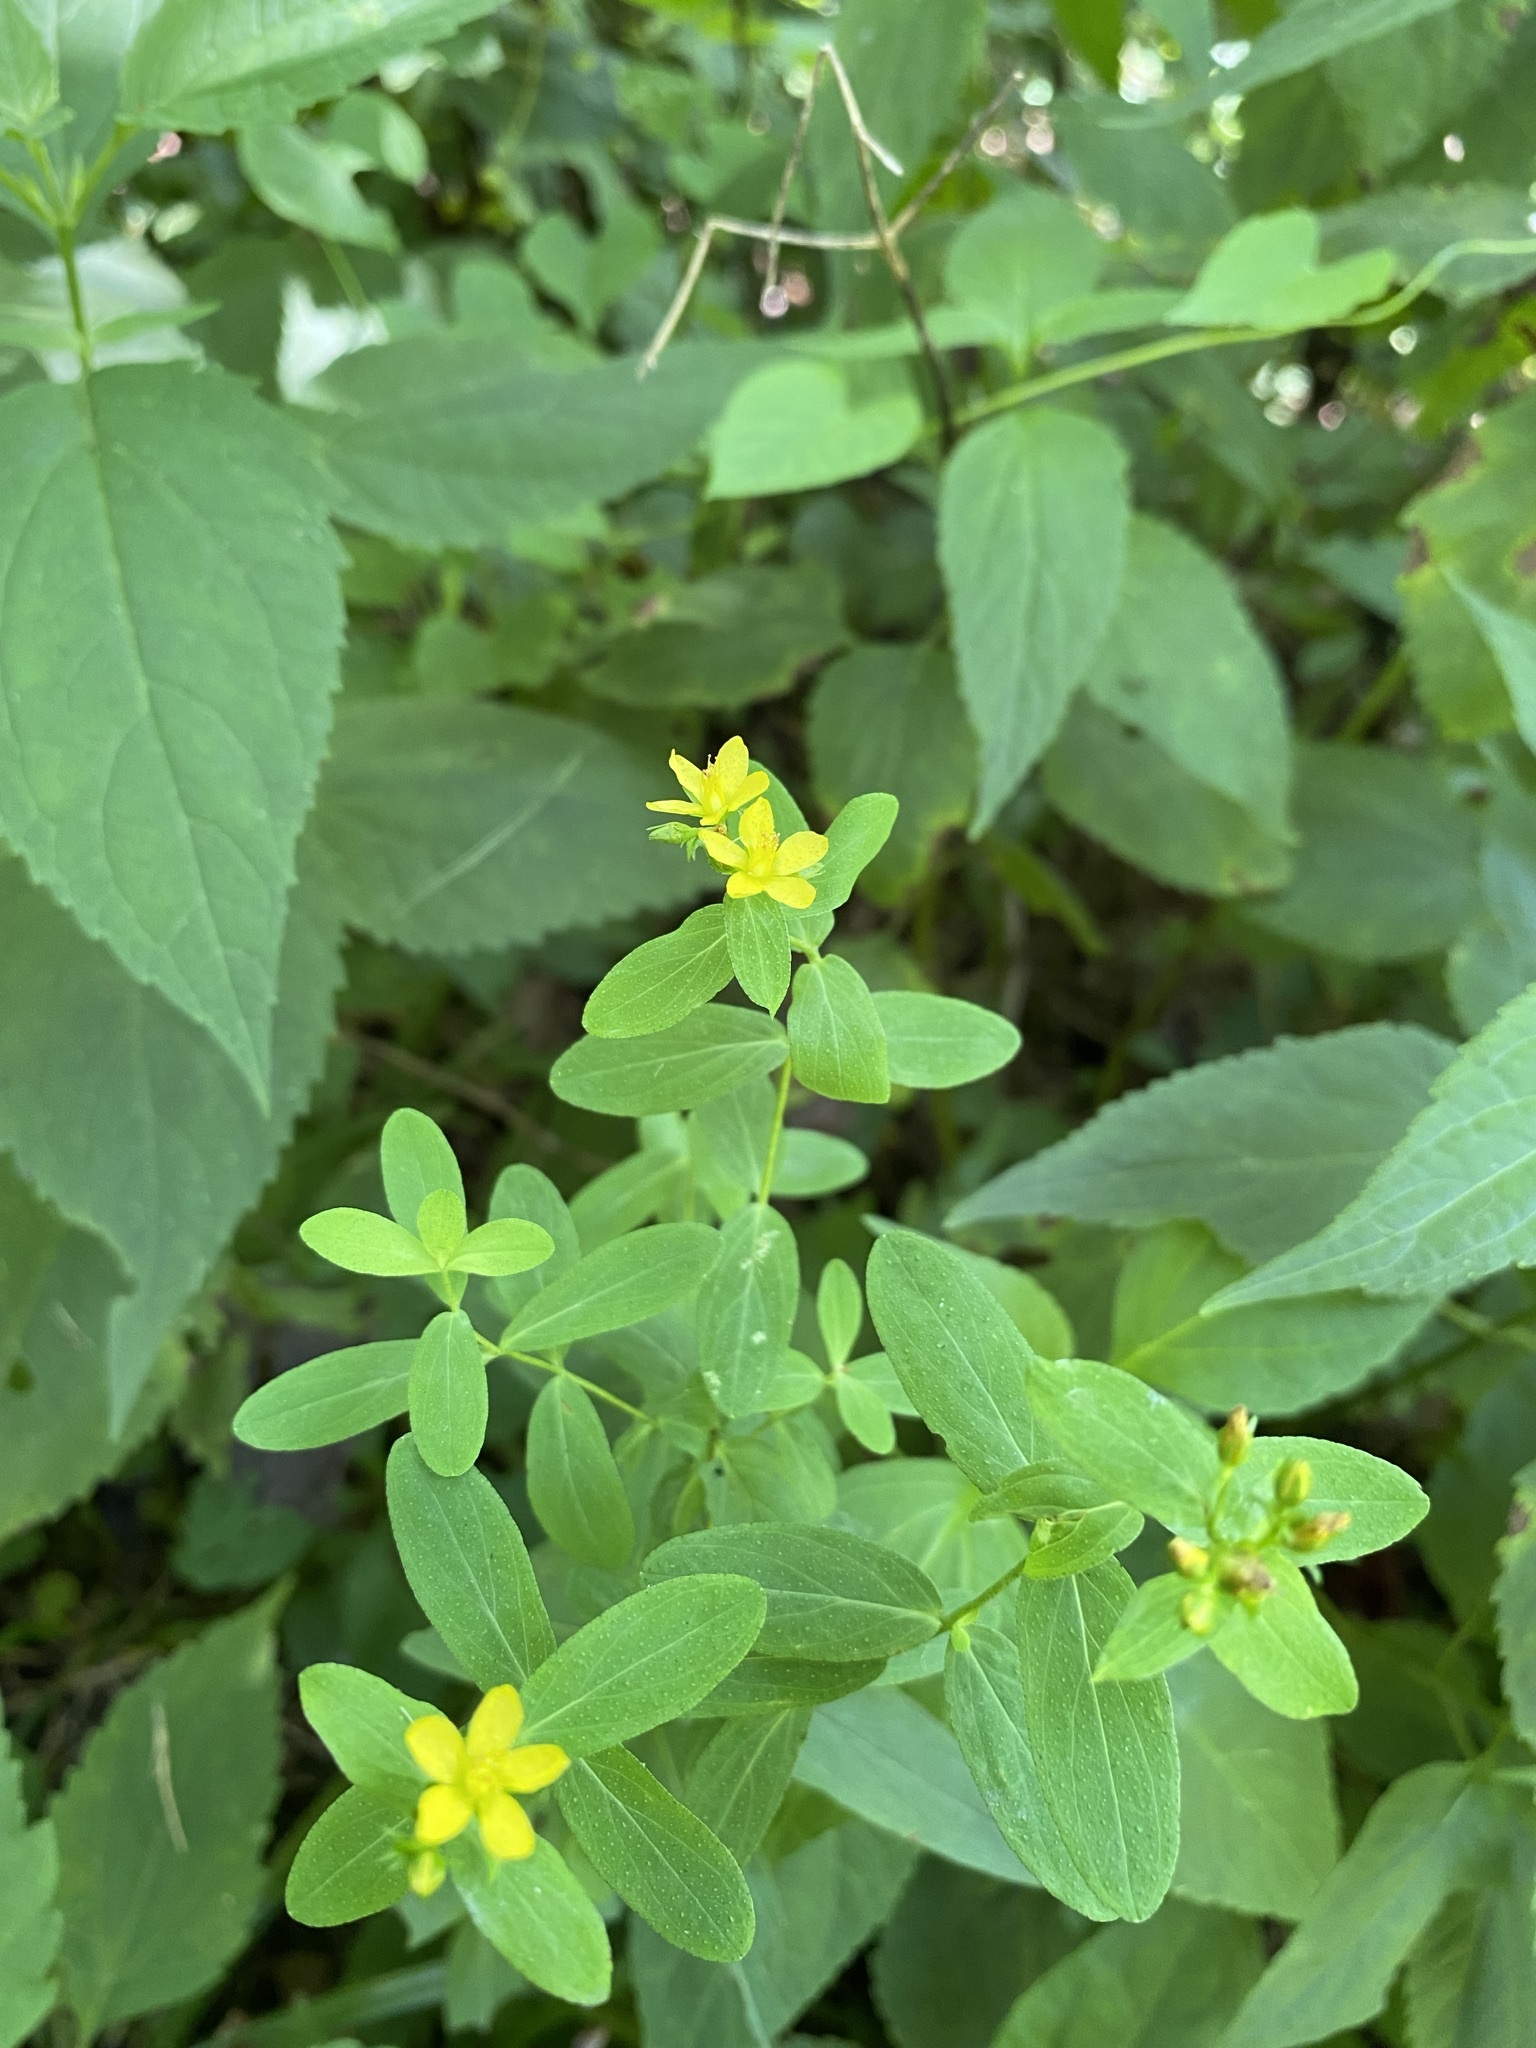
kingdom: Plantae
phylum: Tracheophyta
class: Magnoliopsida
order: Malpighiales
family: Hypericaceae
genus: Hypericum
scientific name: Hypericum punctatum
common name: Spotted st. john's-wort
